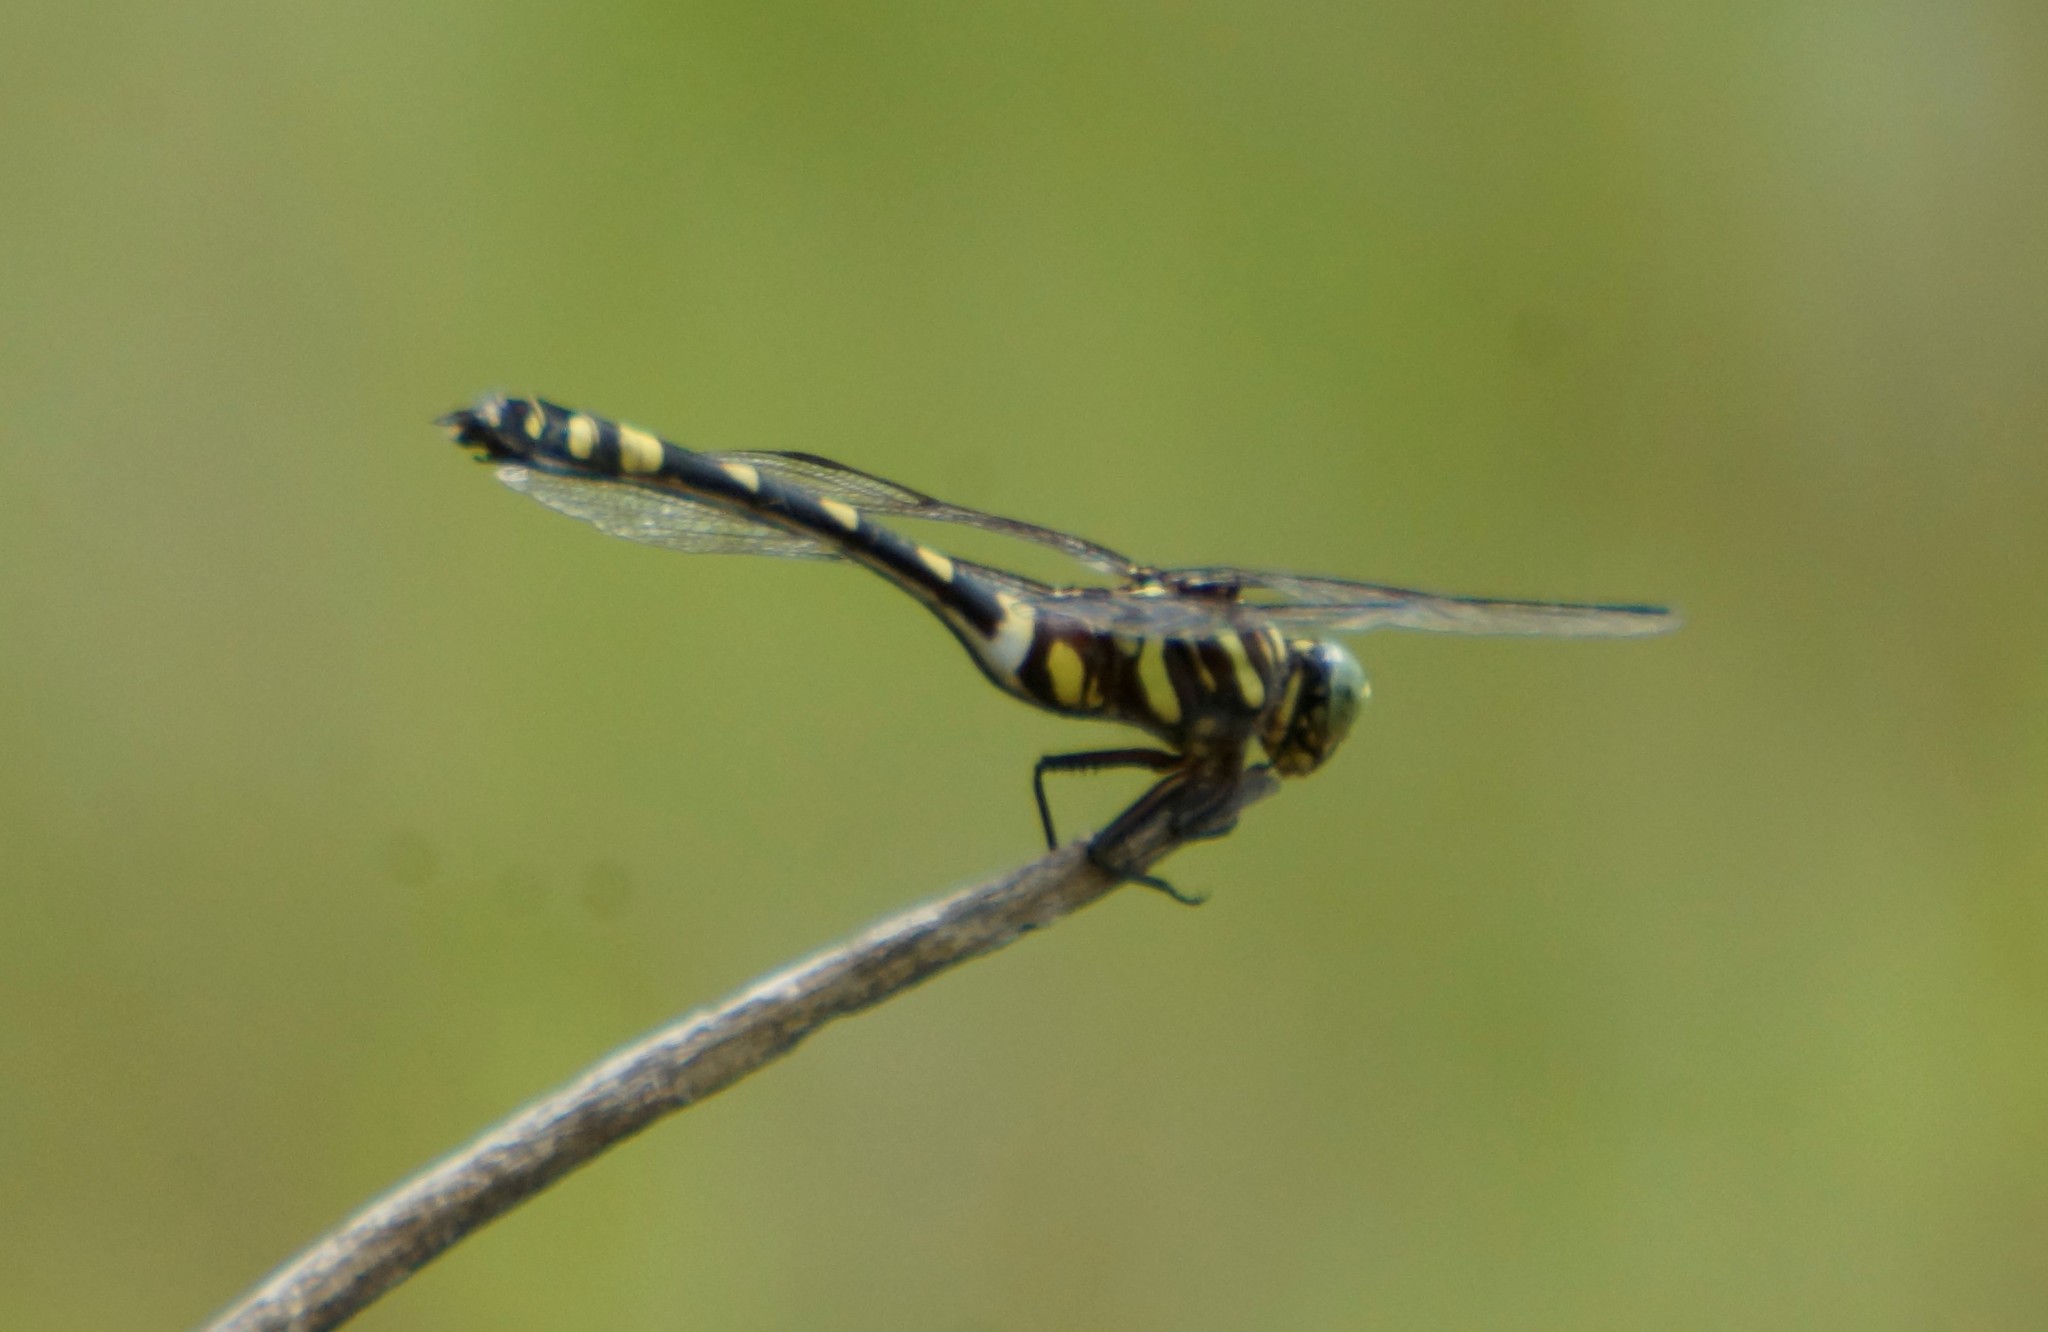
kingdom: Animalia
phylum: Arthropoda
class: Insecta
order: Odonata
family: Gomphidae
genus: Ictinogomphus
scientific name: Ictinogomphus australis
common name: Australian tiger
